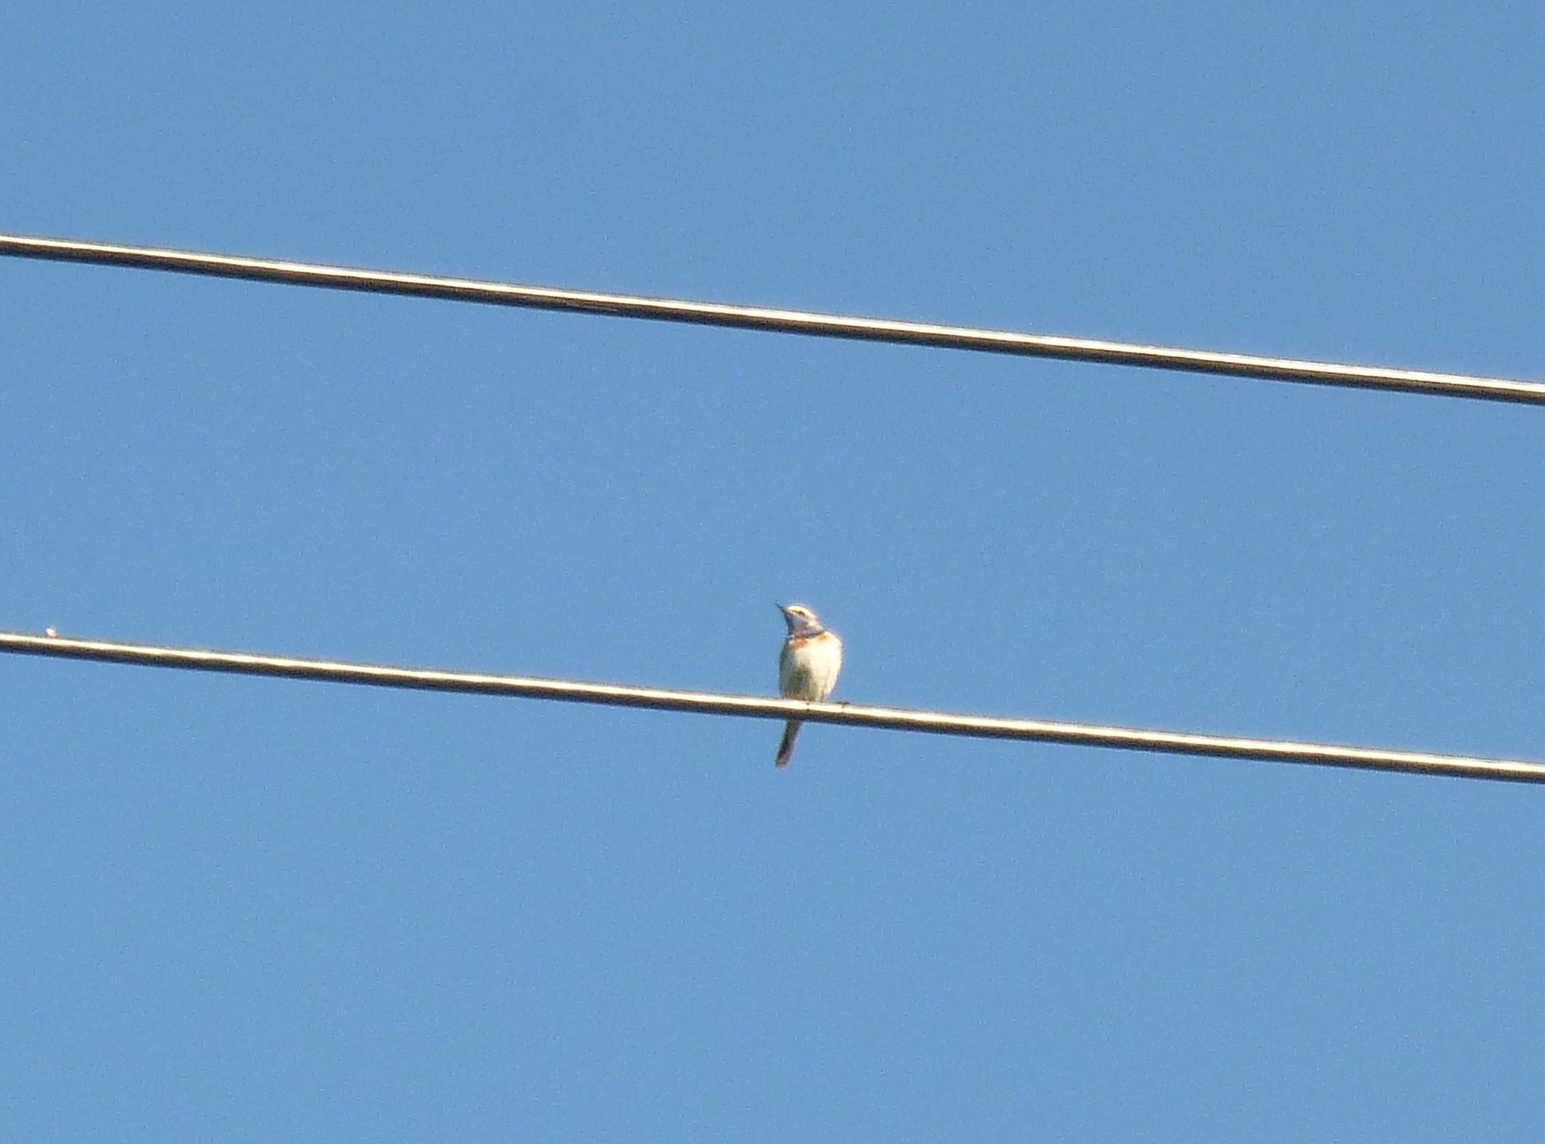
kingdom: Animalia
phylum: Chordata
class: Aves
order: Passeriformes
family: Muscicapidae
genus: Luscinia
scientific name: Luscinia svecica
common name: Bluethroat
